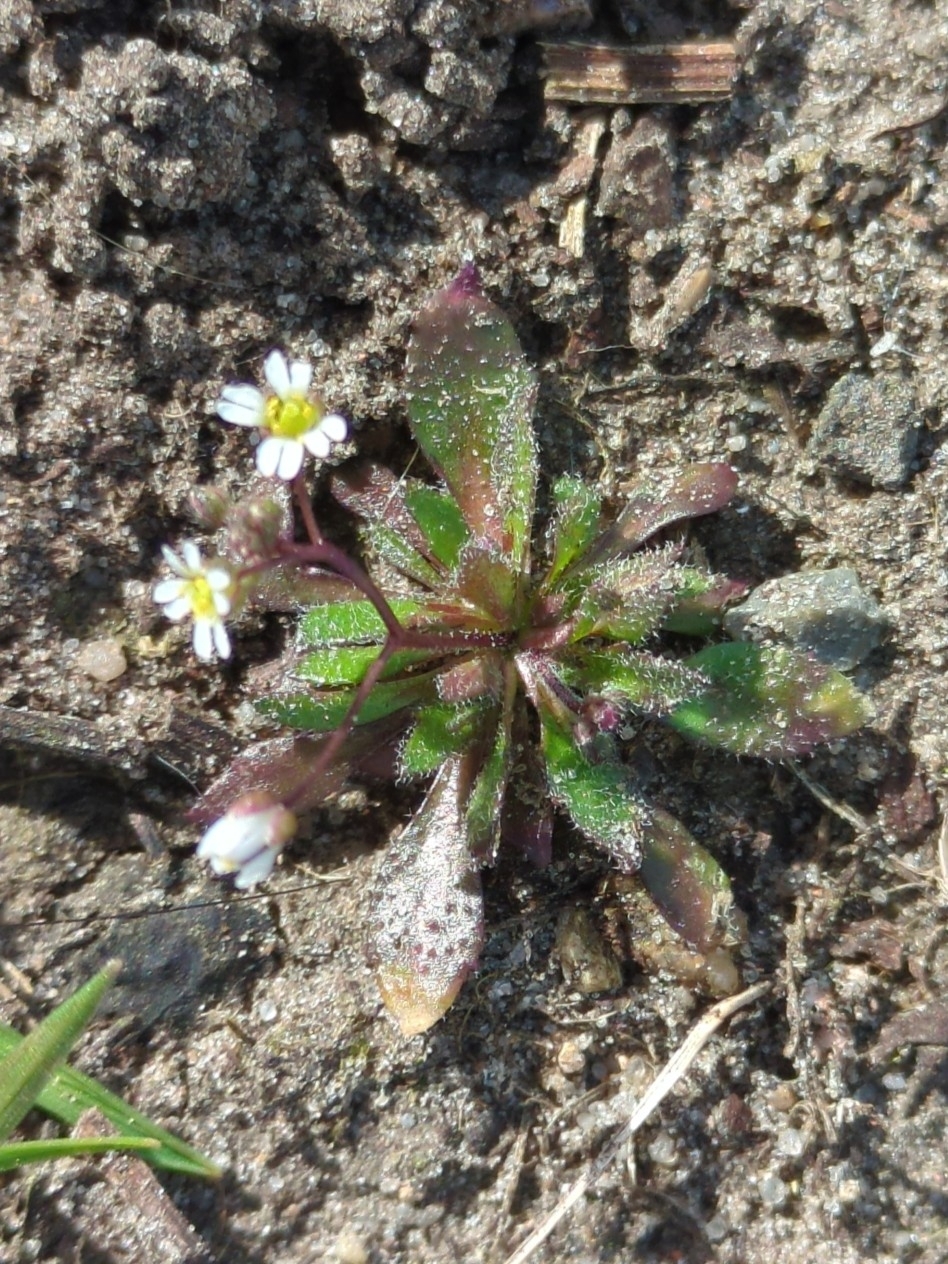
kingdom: Plantae
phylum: Tracheophyta
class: Magnoliopsida
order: Brassicales
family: Brassicaceae
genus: Draba
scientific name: Draba verna
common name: Spring draba
